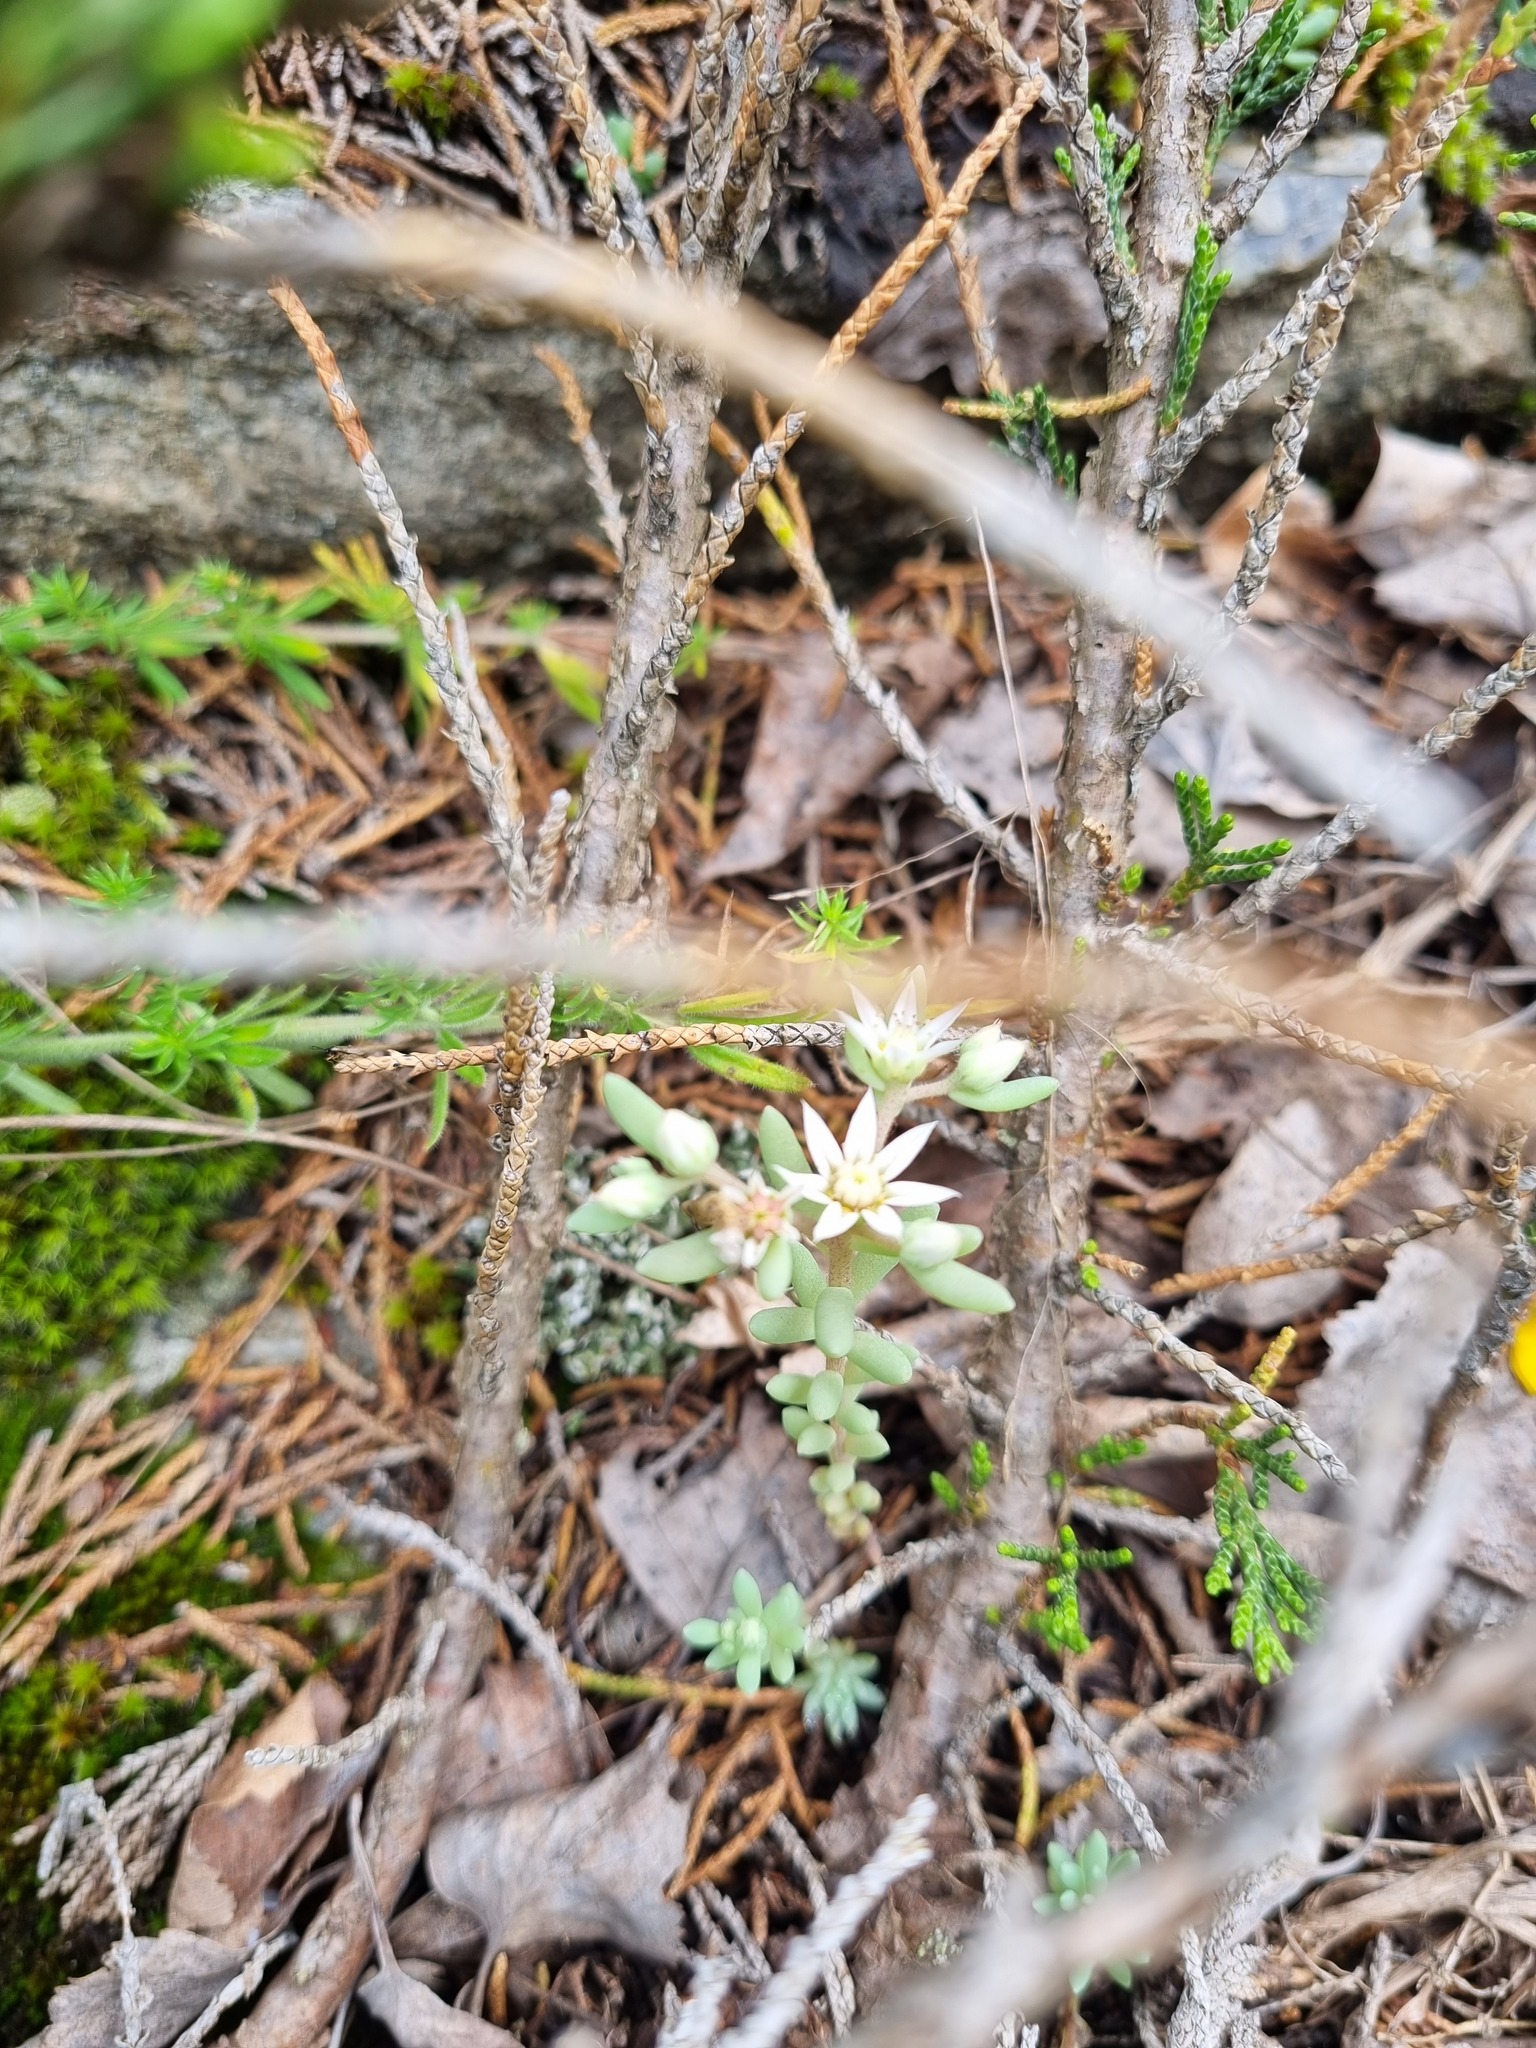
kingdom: Plantae
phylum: Tracheophyta
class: Magnoliopsida
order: Saxifragales
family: Crassulaceae
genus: Sedum
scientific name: Sedum hispanicum
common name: Spanish stonecrop
